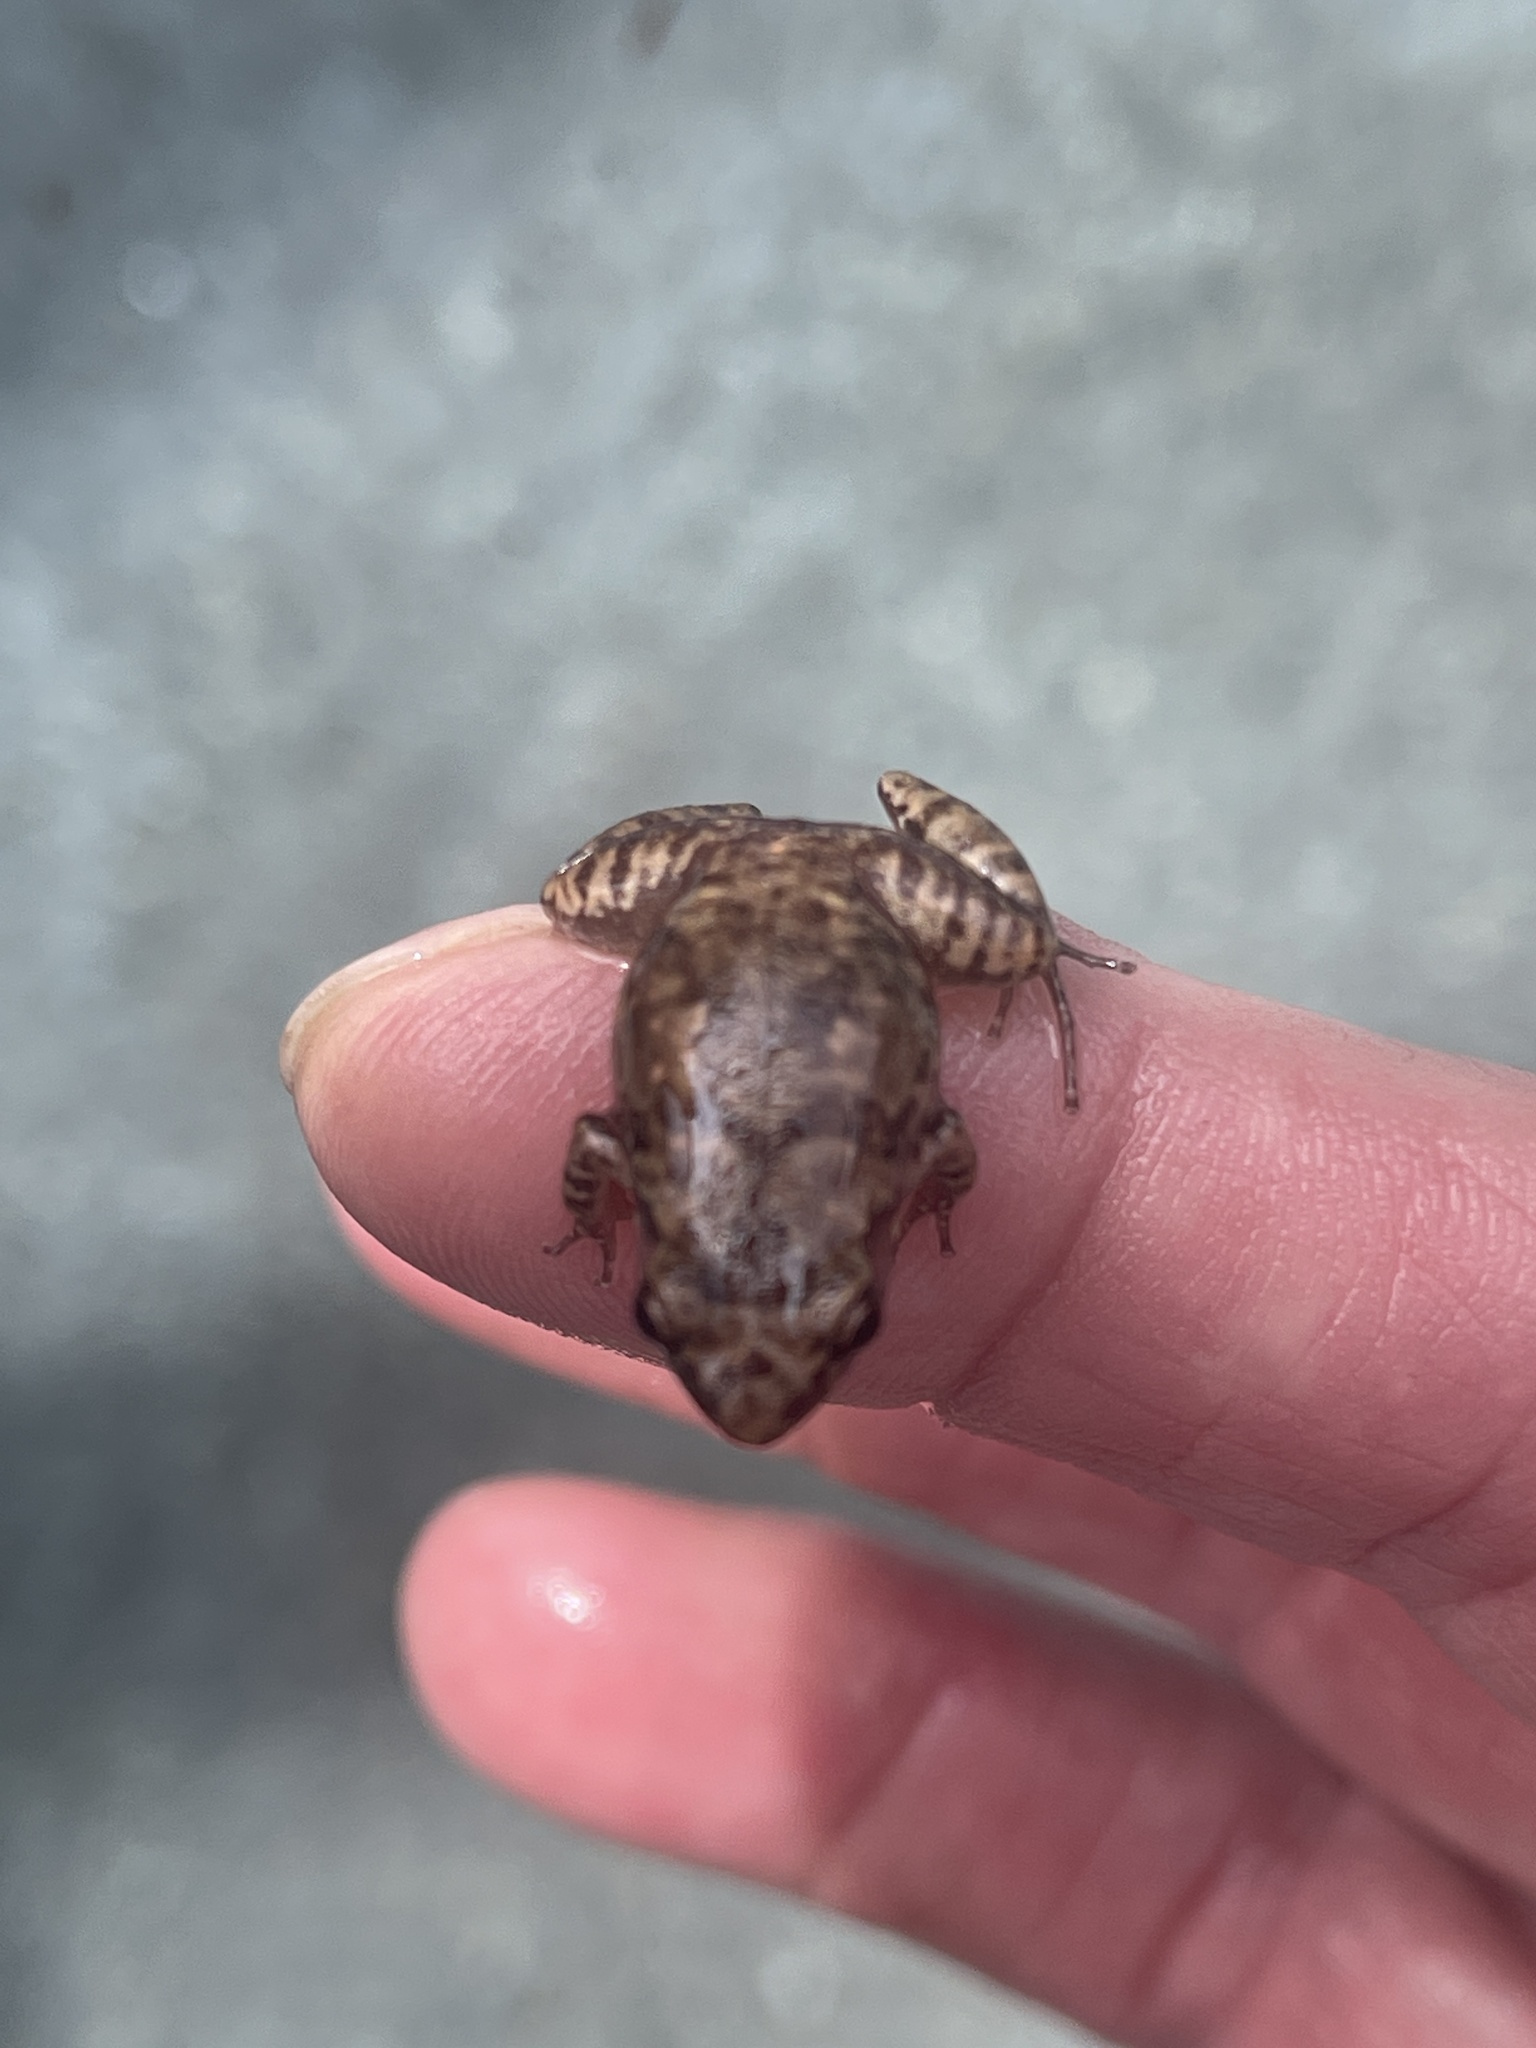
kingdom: Animalia
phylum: Chordata
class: Amphibia
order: Anura
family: Eleutherodactylidae
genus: Eleutherodactylus
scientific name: Eleutherodactylus planirostris
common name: Greenhouse frog
